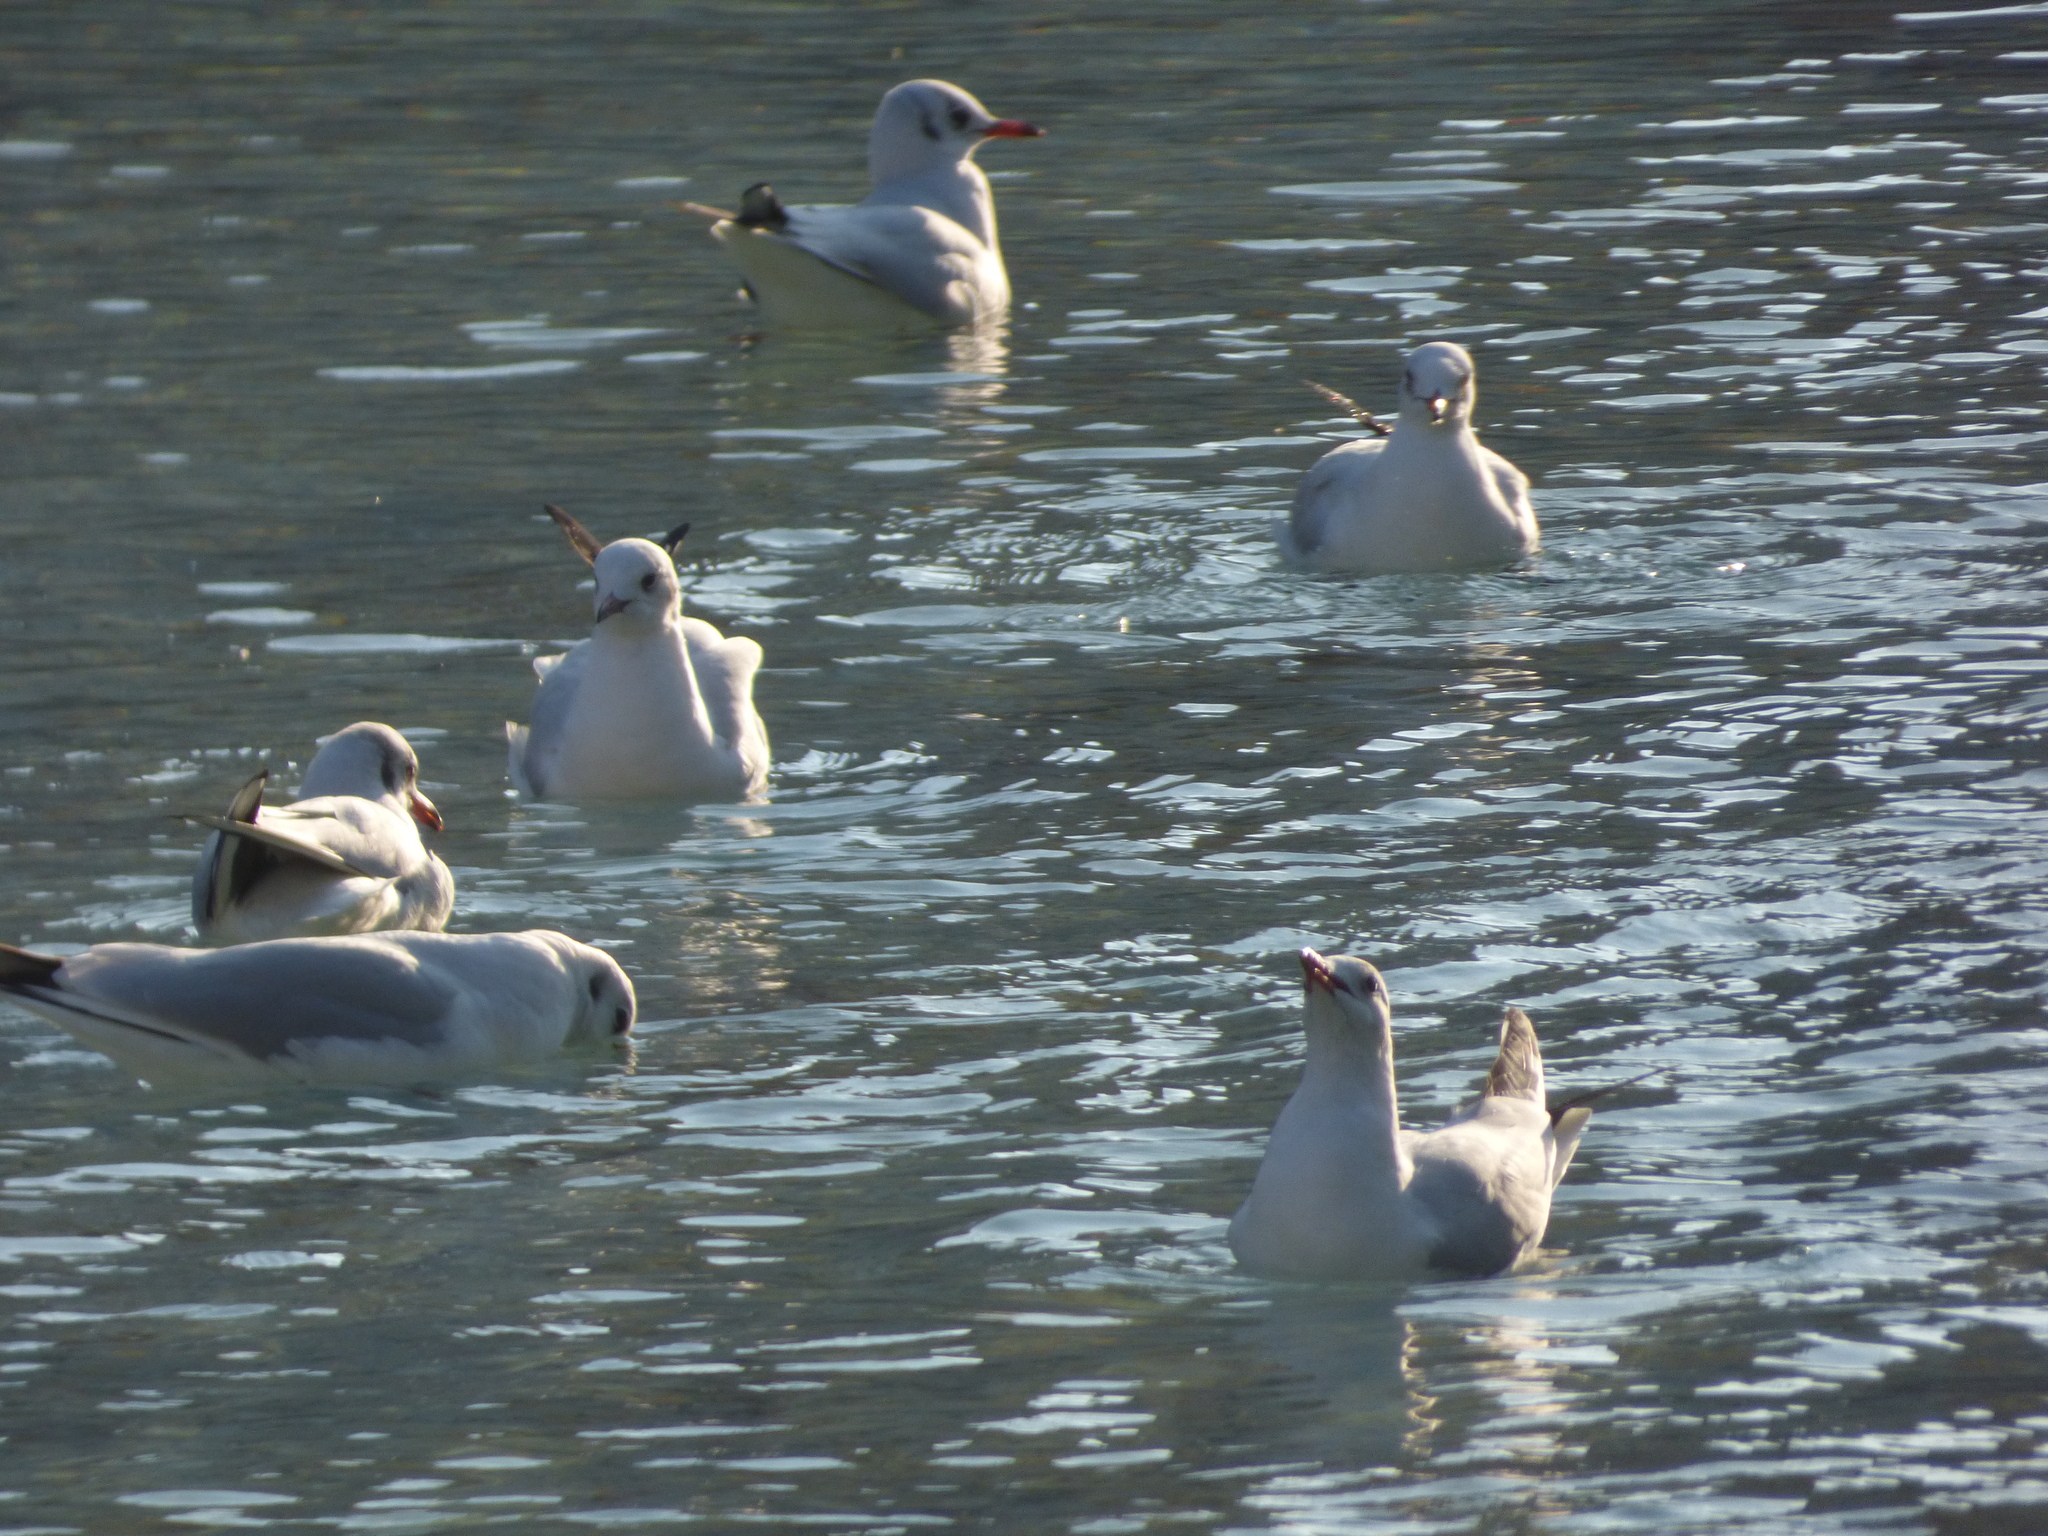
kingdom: Animalia
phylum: Chordata
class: Aves
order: Charadriiformes
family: Laridae
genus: Chroicocephalus
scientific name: Chroicocephalus ridibundus
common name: Black-headed gull
